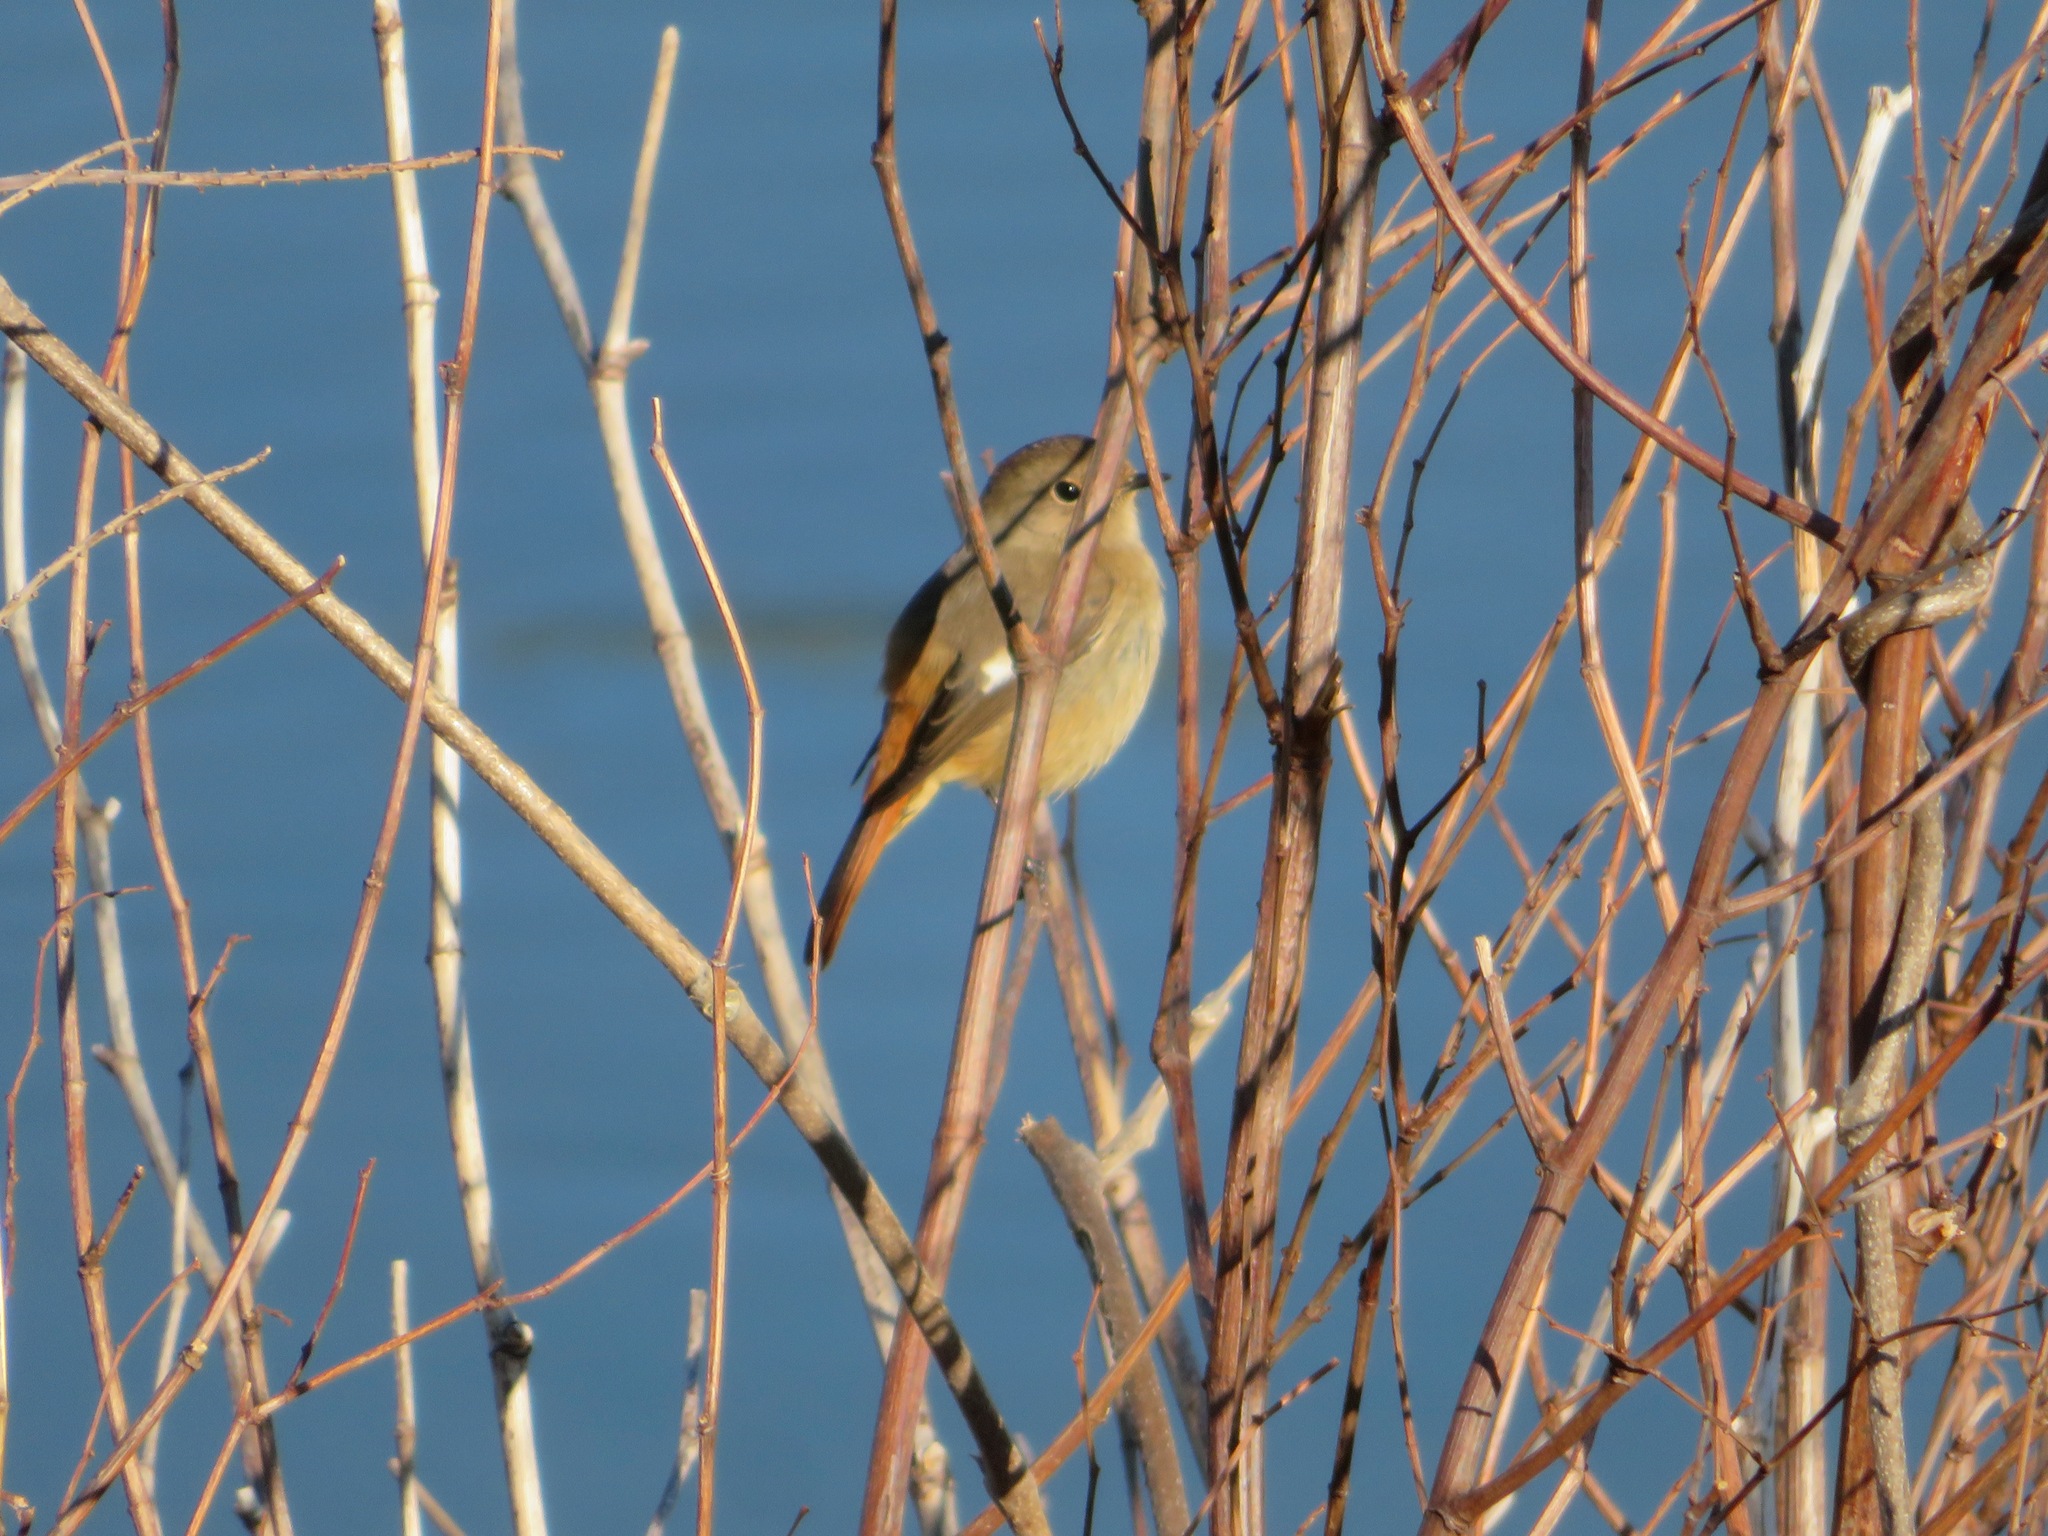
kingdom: Animalia
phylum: Chordata
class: Aves
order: Passeriformes
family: Muscicapidae
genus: Phoenicurus
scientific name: Phoenicurus auroreus
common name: Daurian redstart
